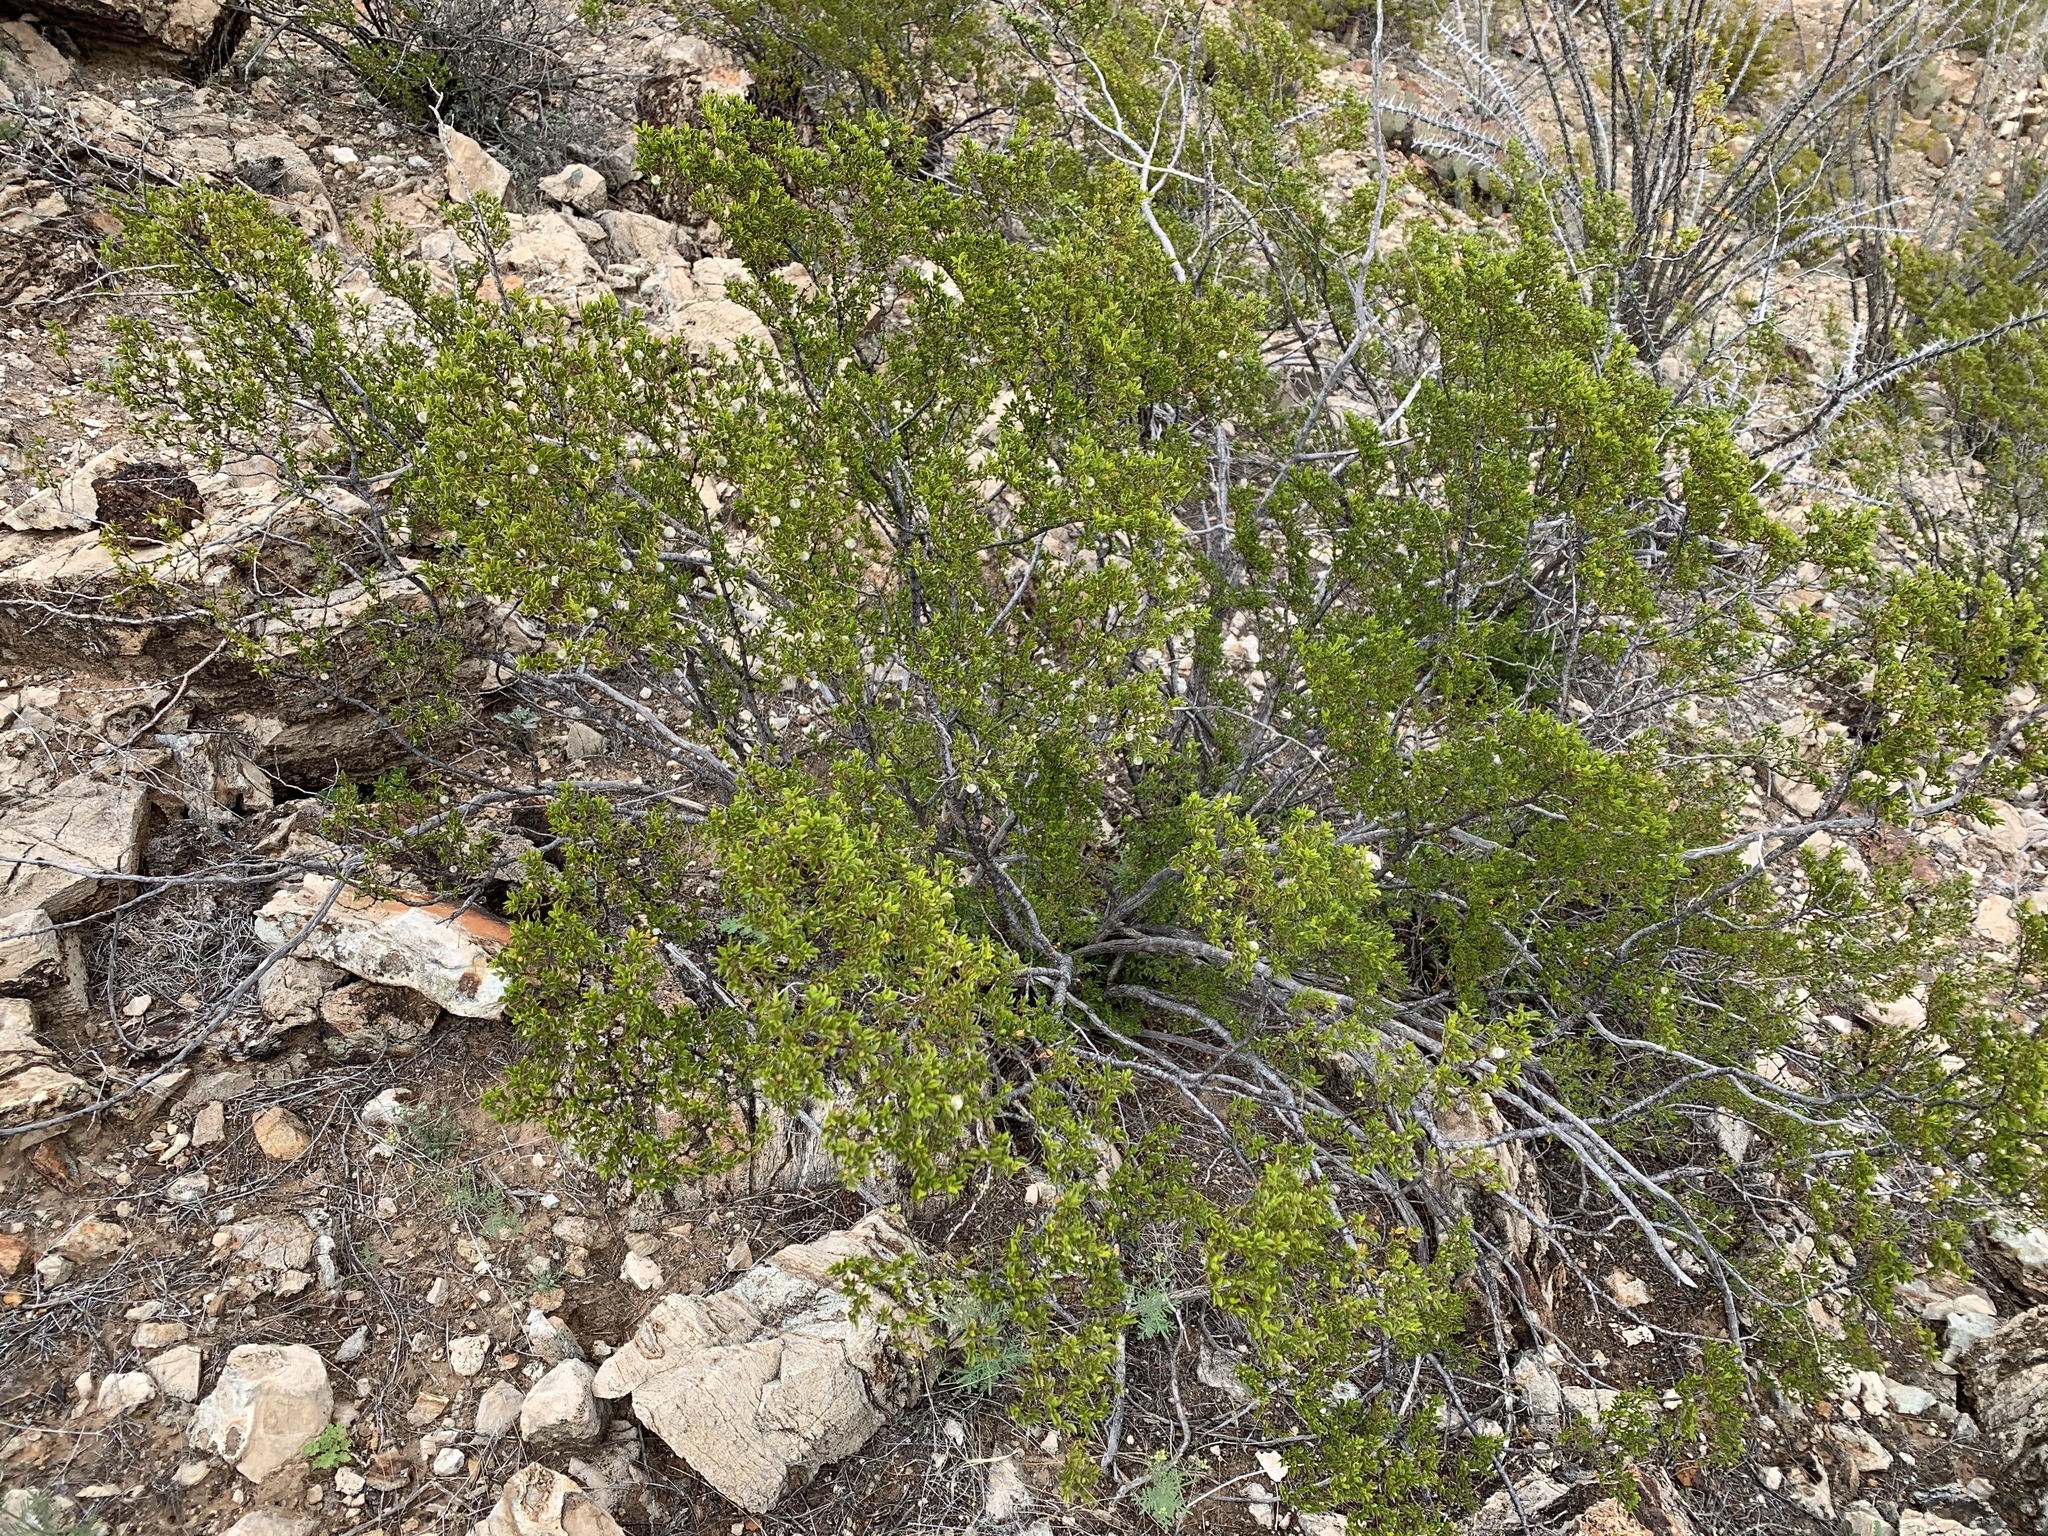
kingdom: Plantae
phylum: Tracheophyta
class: Magnoliopsida
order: Zygophyllales
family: Zygophyllaceae
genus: Larrea
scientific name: Larrea tridentata
